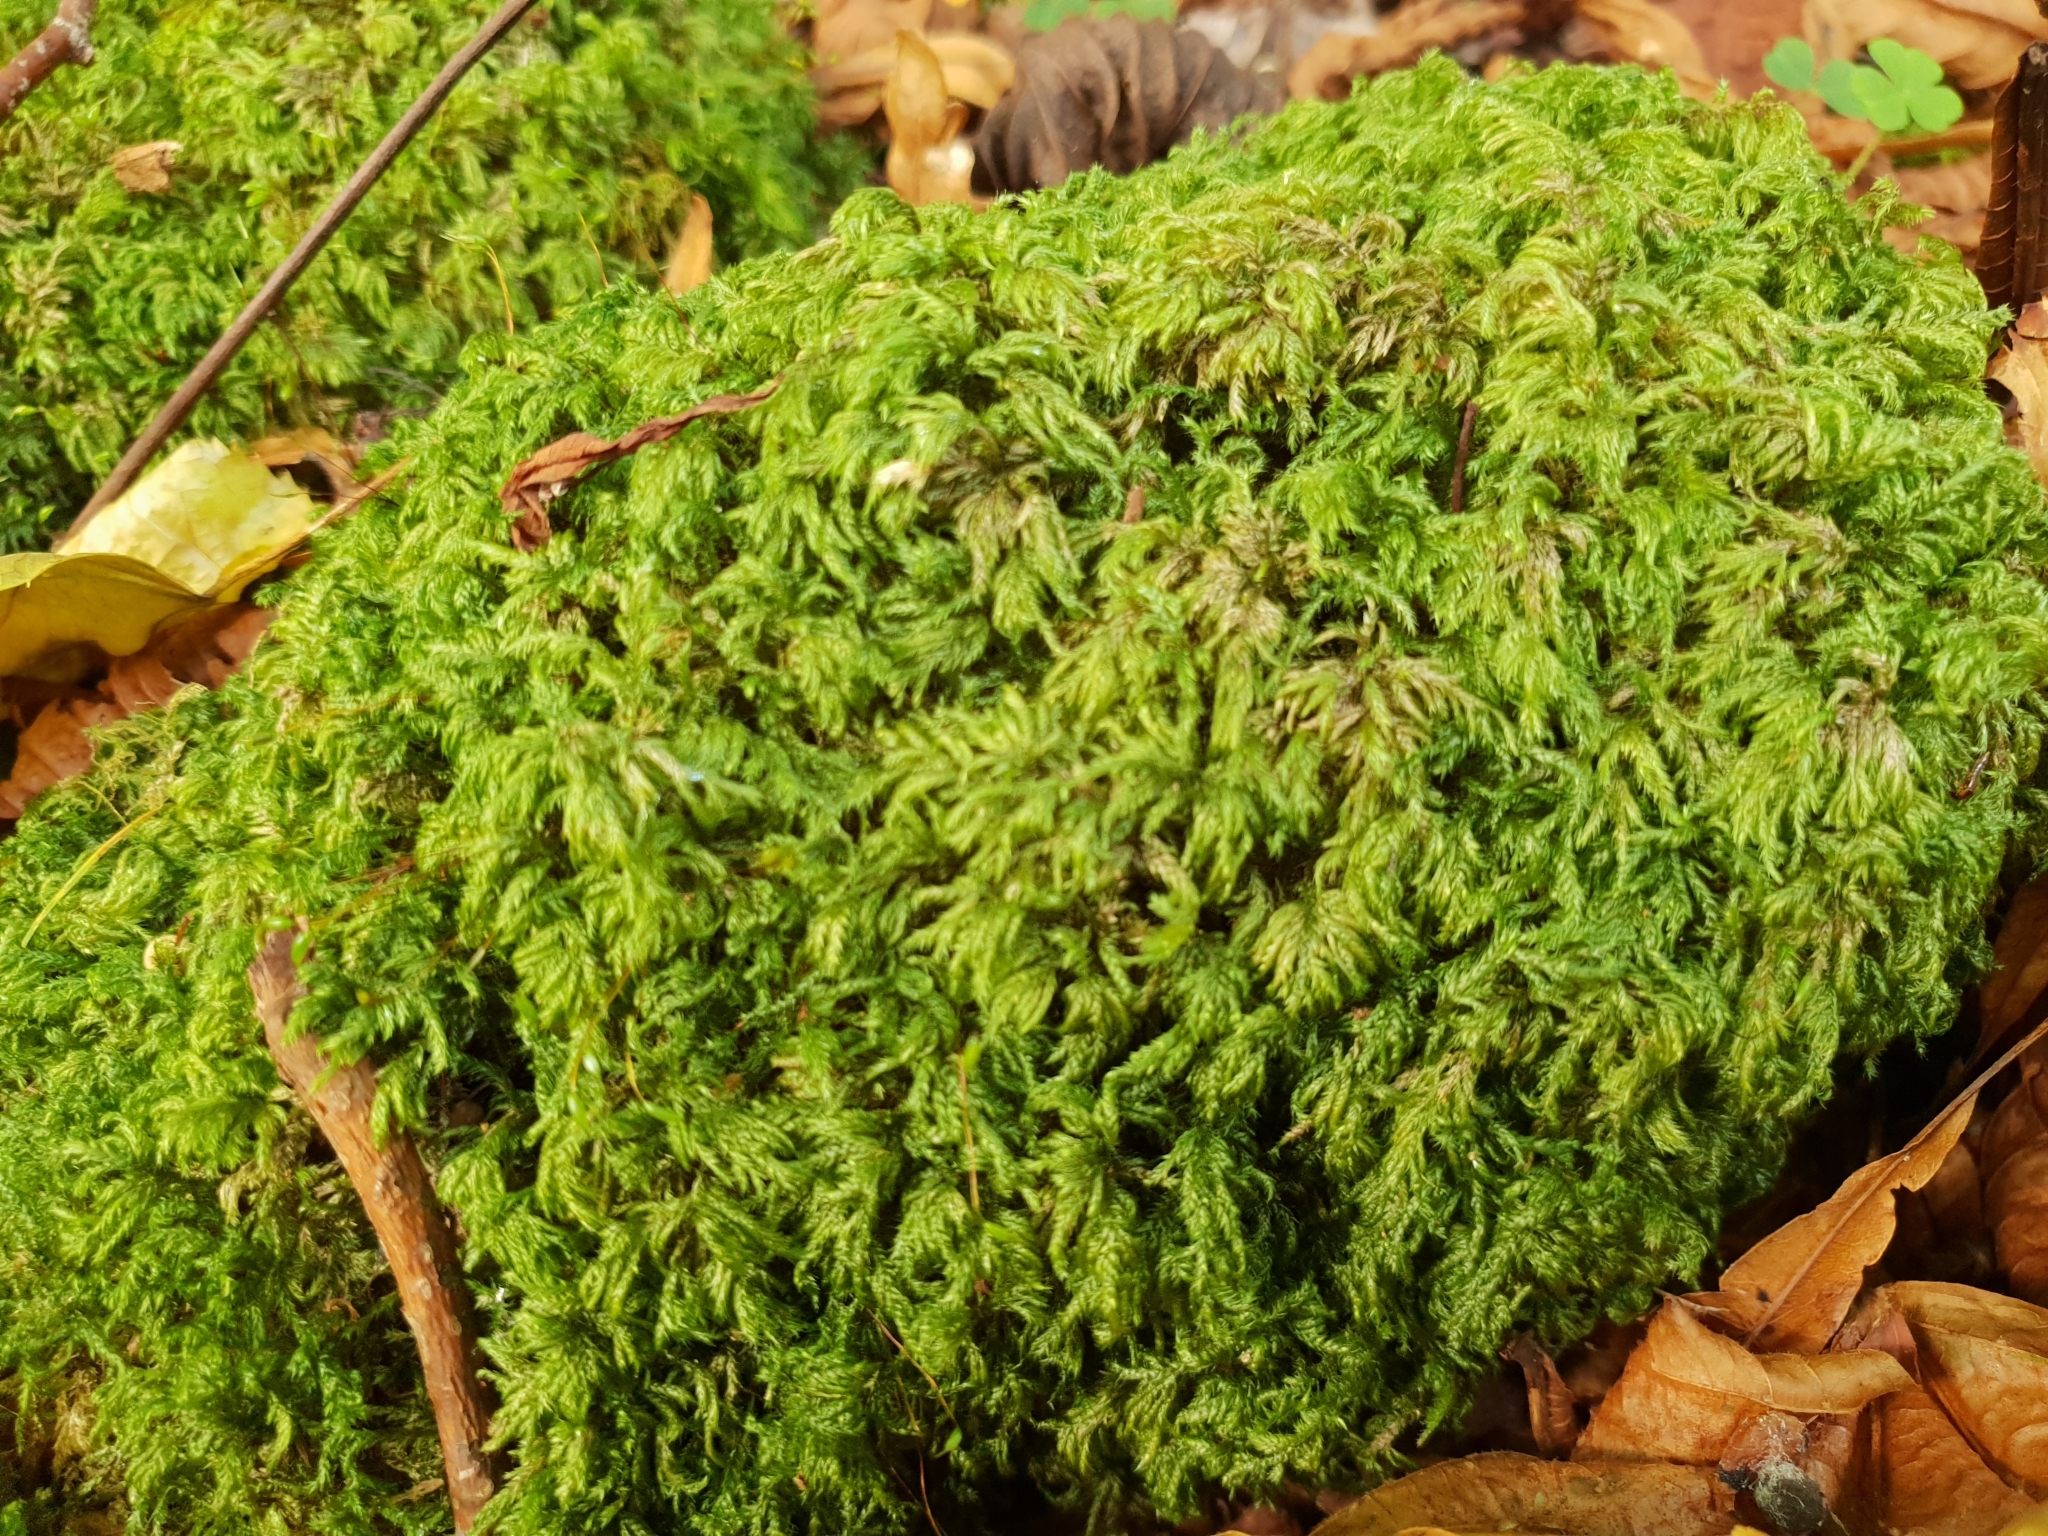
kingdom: Plantae
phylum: Bryophyta
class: Bryopsida
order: Hypnales
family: Lembophyllaceae
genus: Pseudisothecium
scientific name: Pseudisothecium myosuroides
